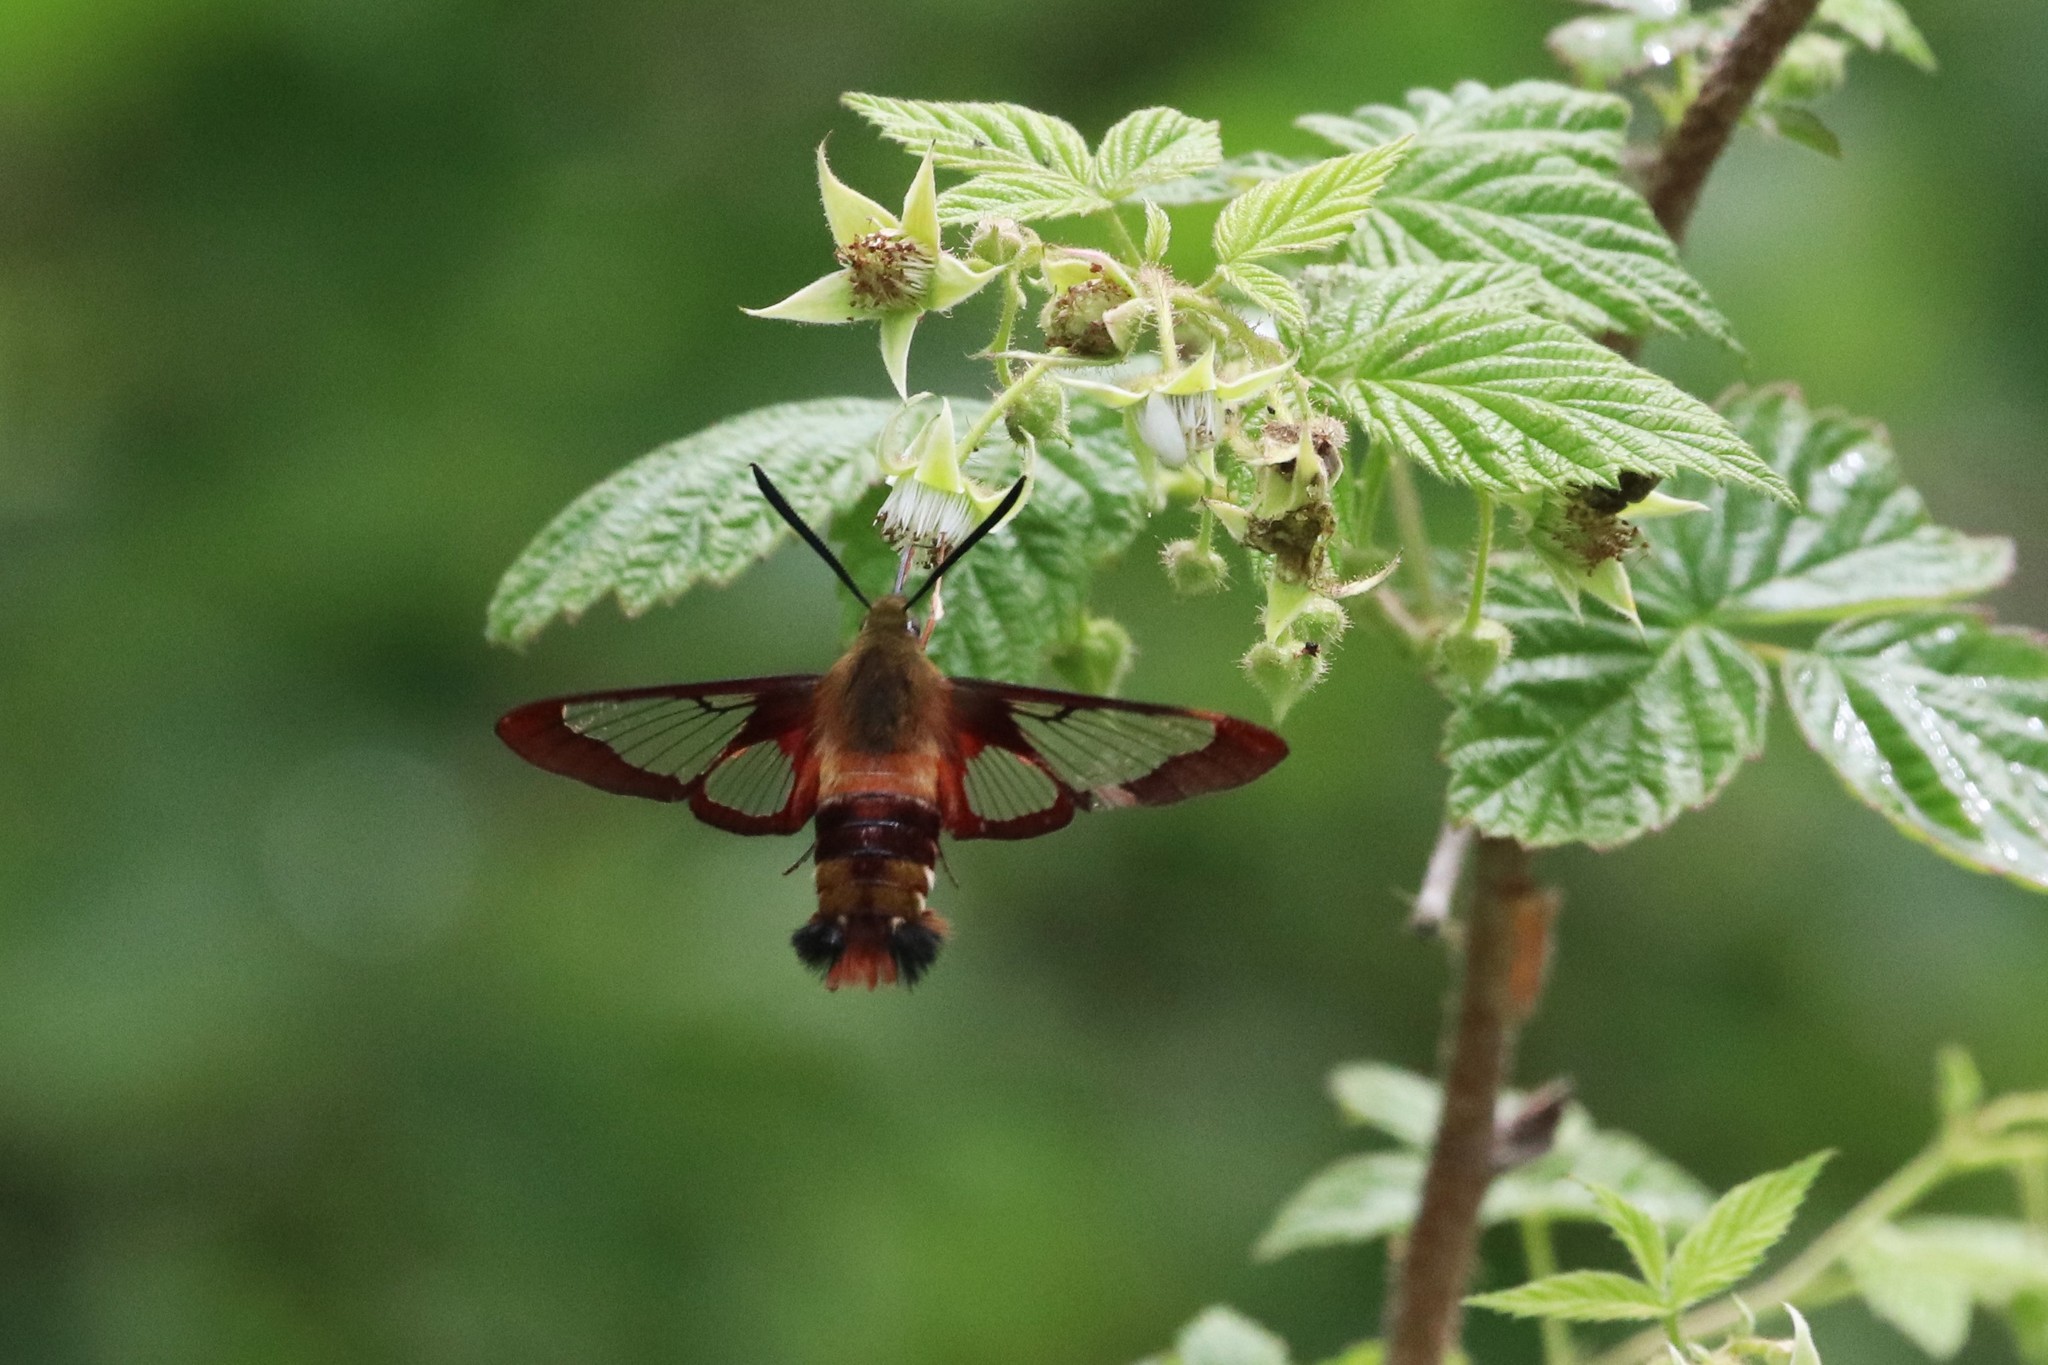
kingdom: Animalia
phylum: Arthropoda
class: Insecta
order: Lepidoptera
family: Sphingidae
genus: Hemaris
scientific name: Hemaris thysbe
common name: Common clear-wing
